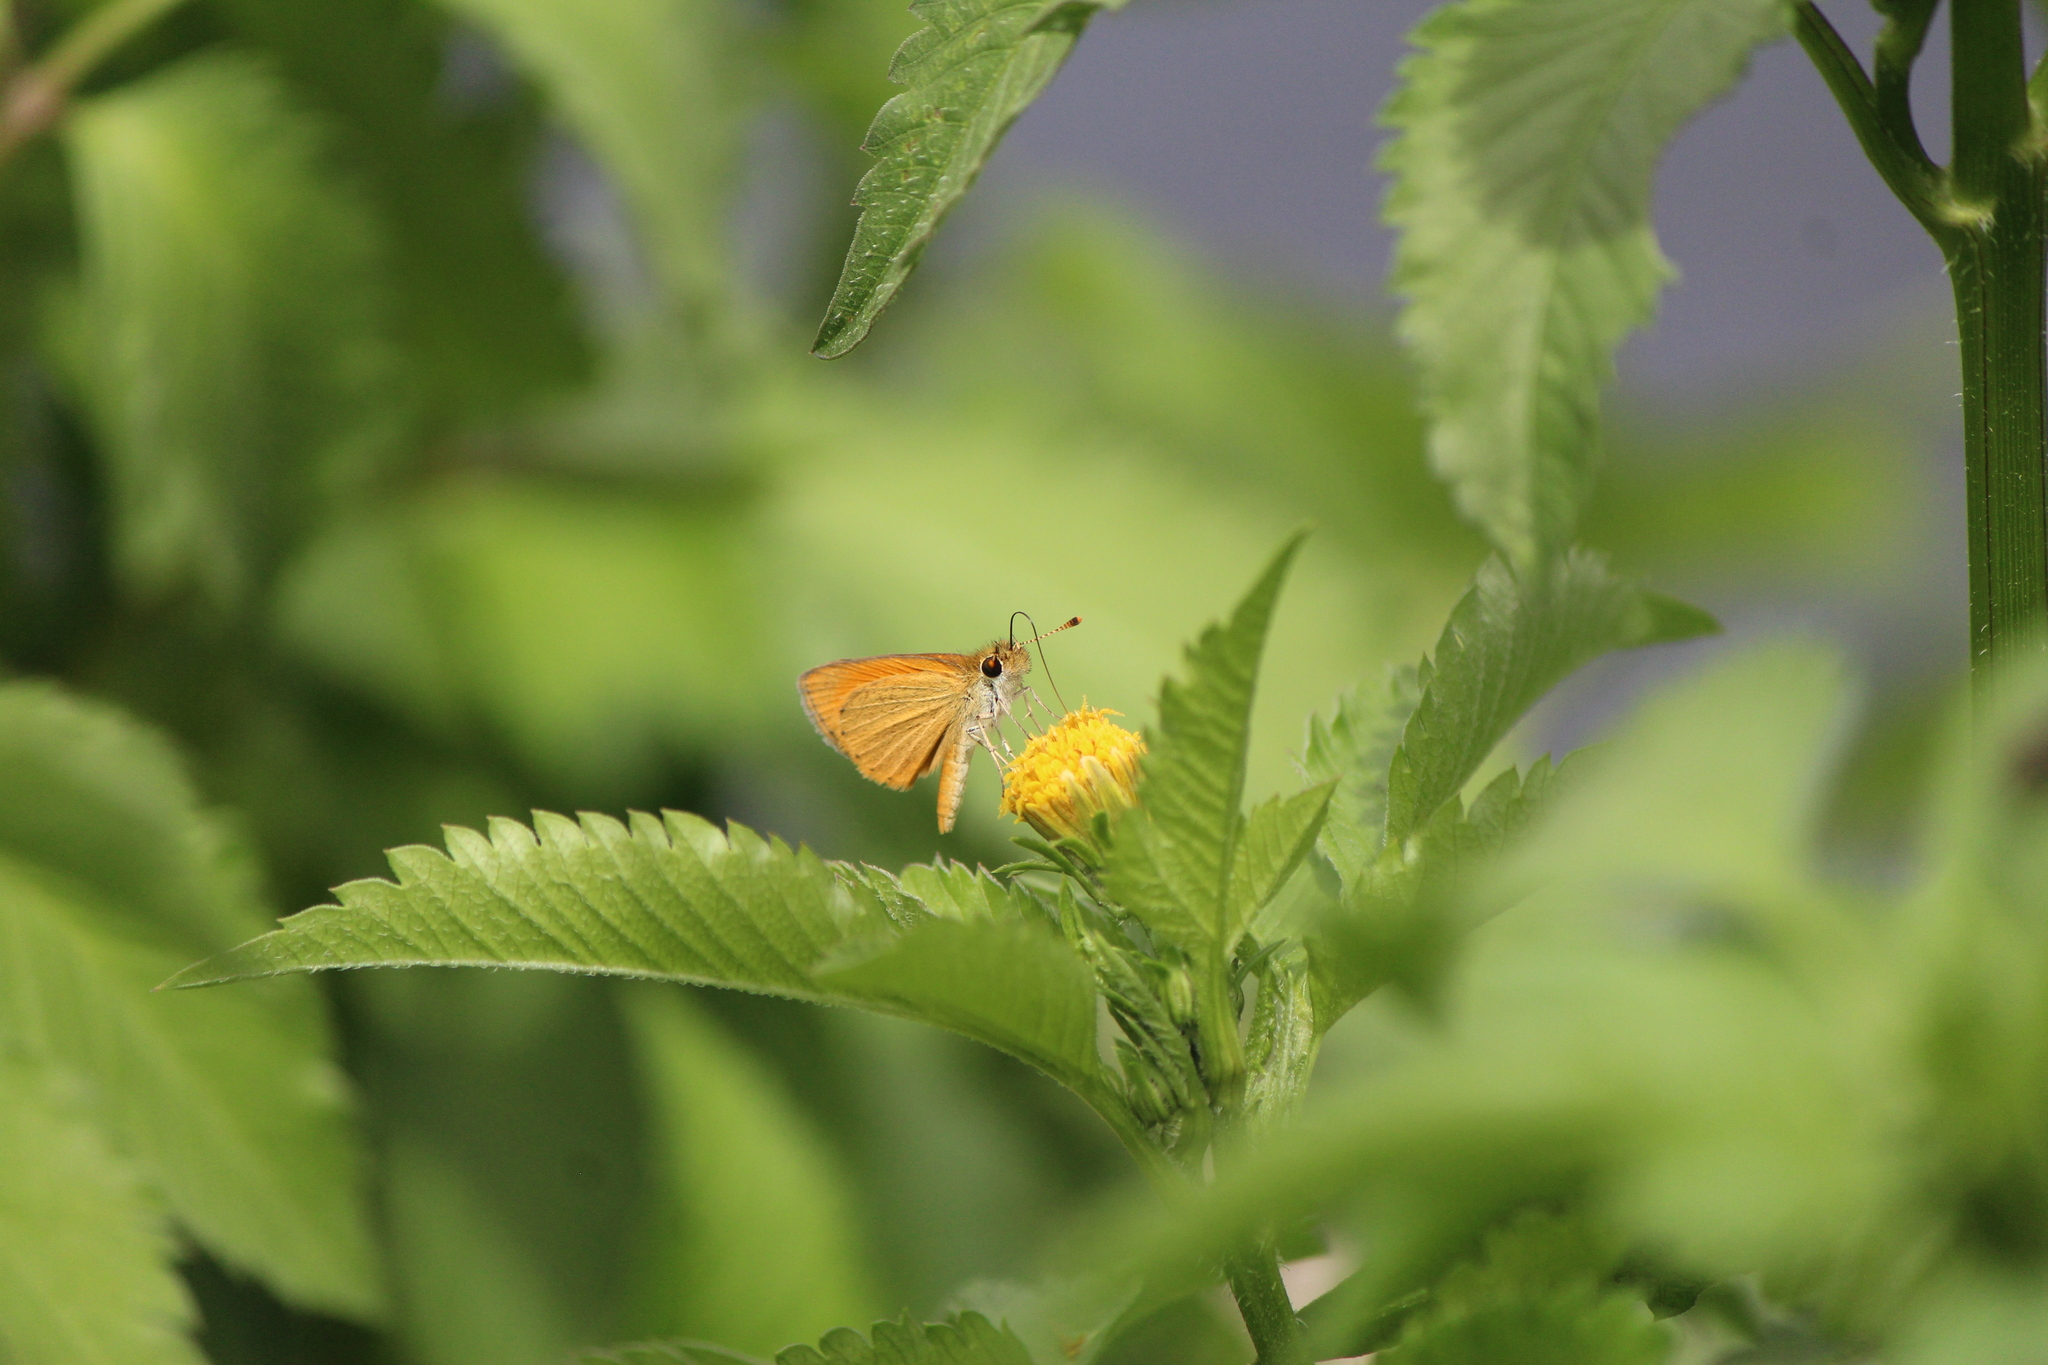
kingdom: Animalia
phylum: Arthropoda
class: Insecta
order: Lepidoptera
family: Hesperiidae
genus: Ancyloxypha
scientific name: Ancyloxypha arene
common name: Tropical least skipper
